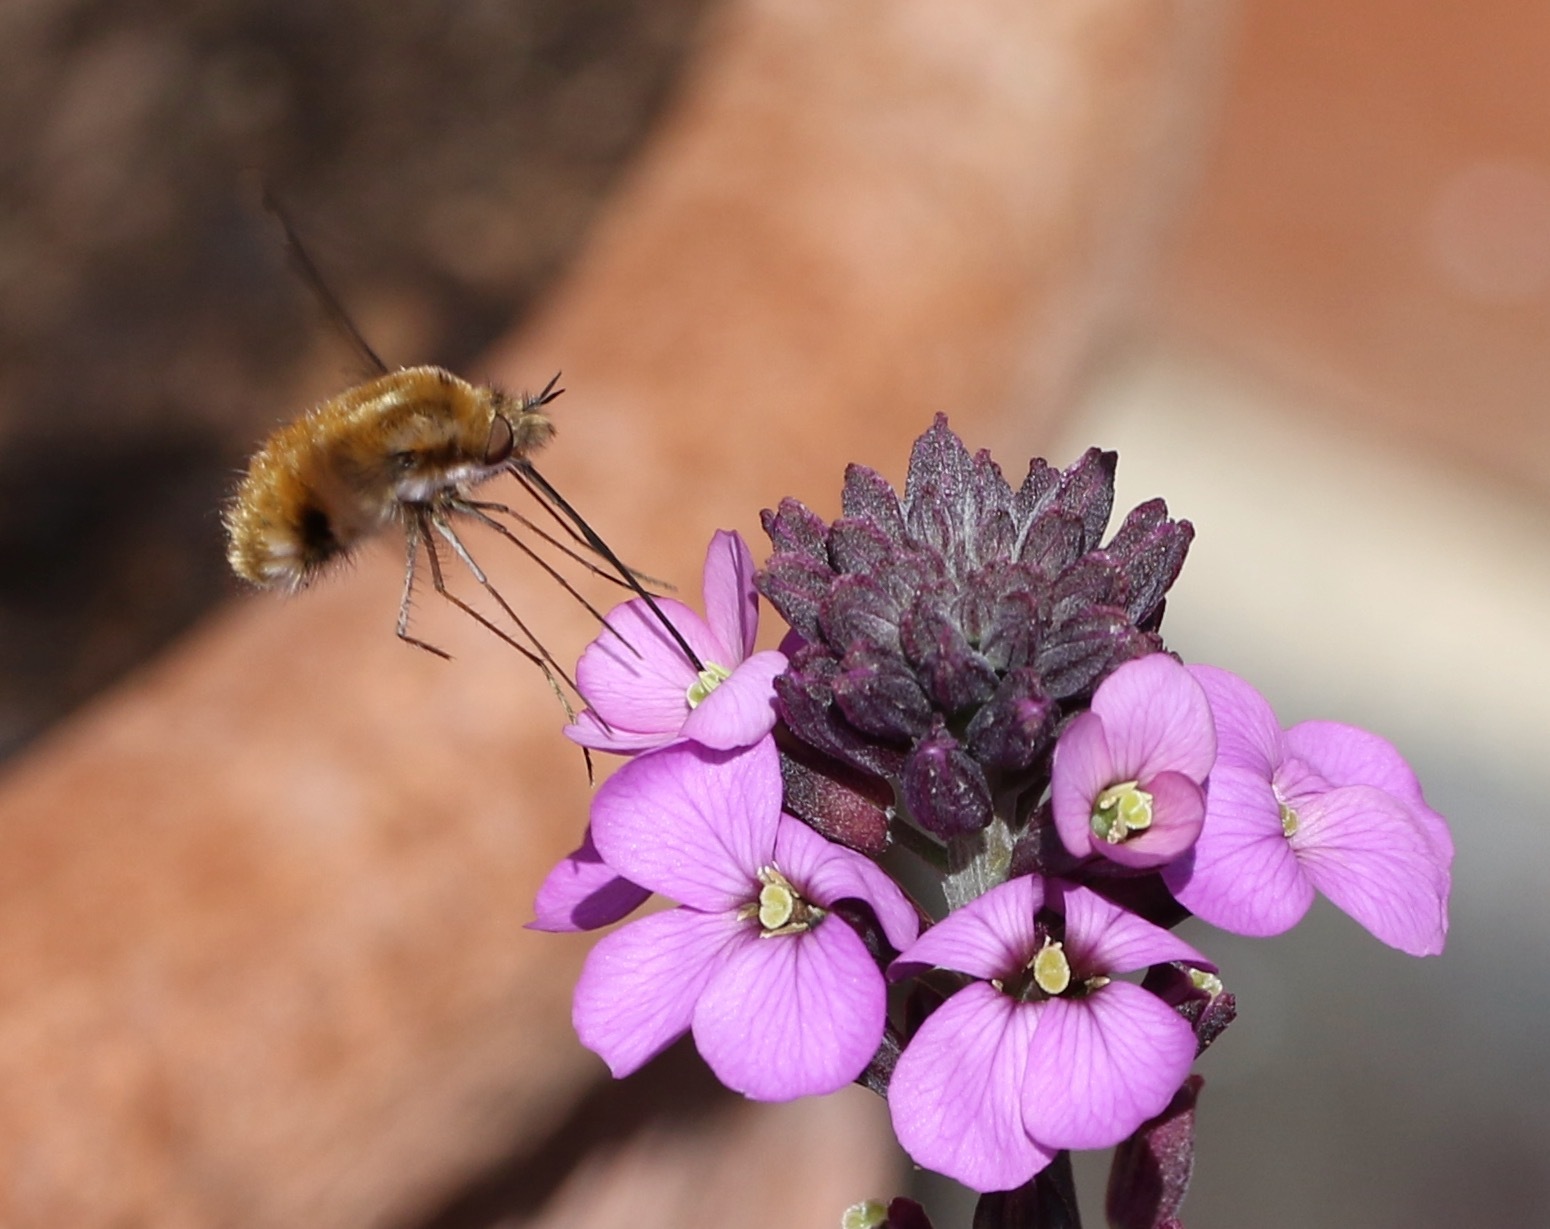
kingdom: Animalia
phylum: Arthropoda
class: Insecta
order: Diptera
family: Bombyliidae
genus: Bombylius
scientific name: Bombylius major
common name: Bee fly
